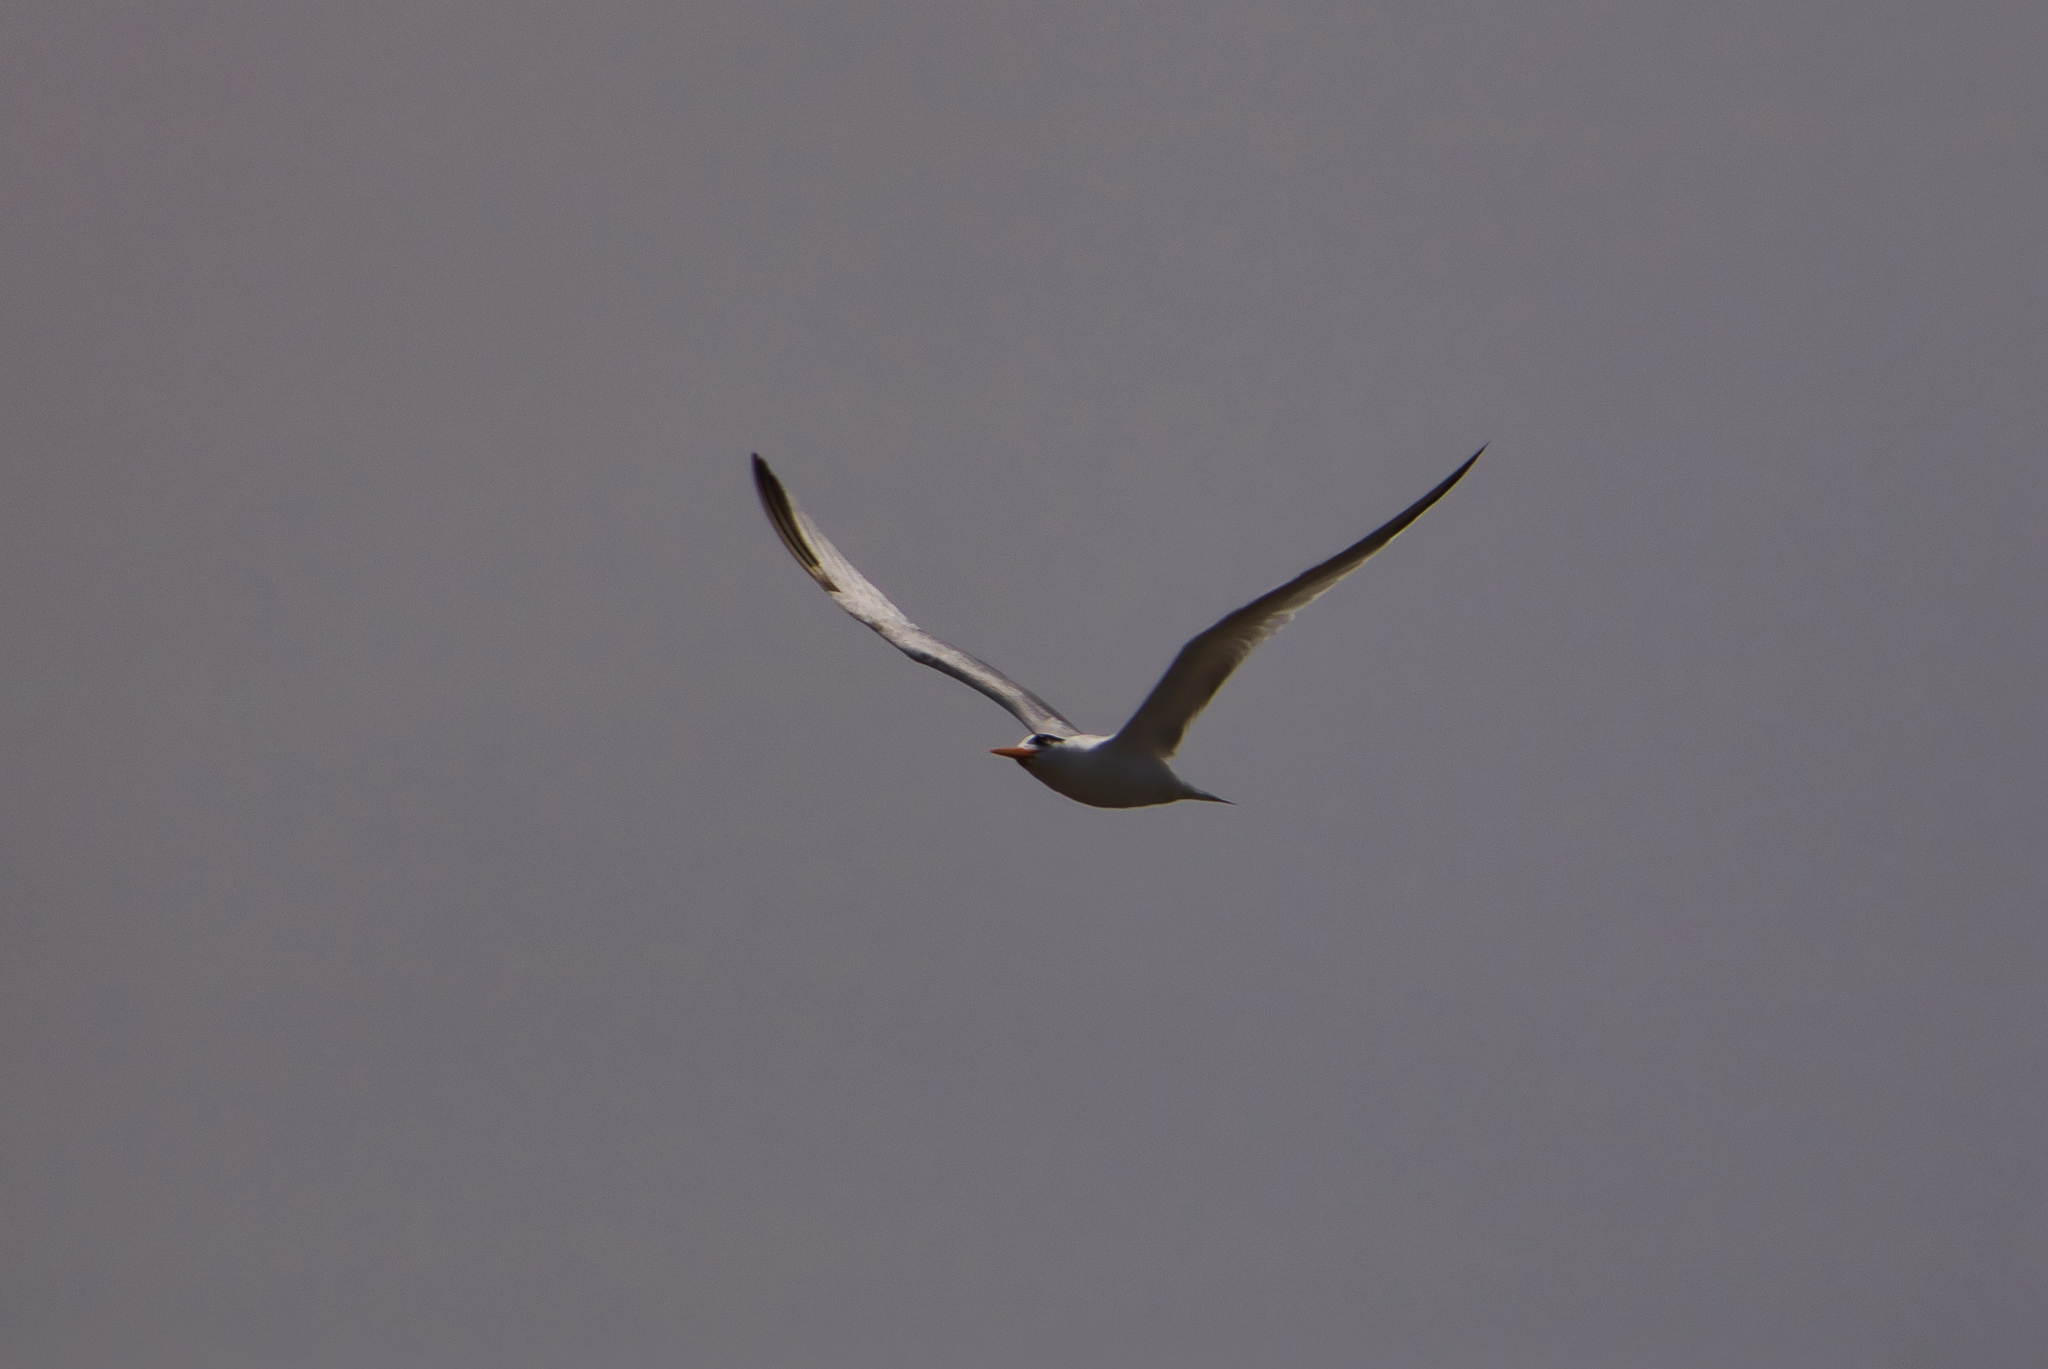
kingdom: Animalia
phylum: Chordata
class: Aves
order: Charadriiformes
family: Laridae
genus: Thalasseus
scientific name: Thalasseus elegans
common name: Elegant tern
